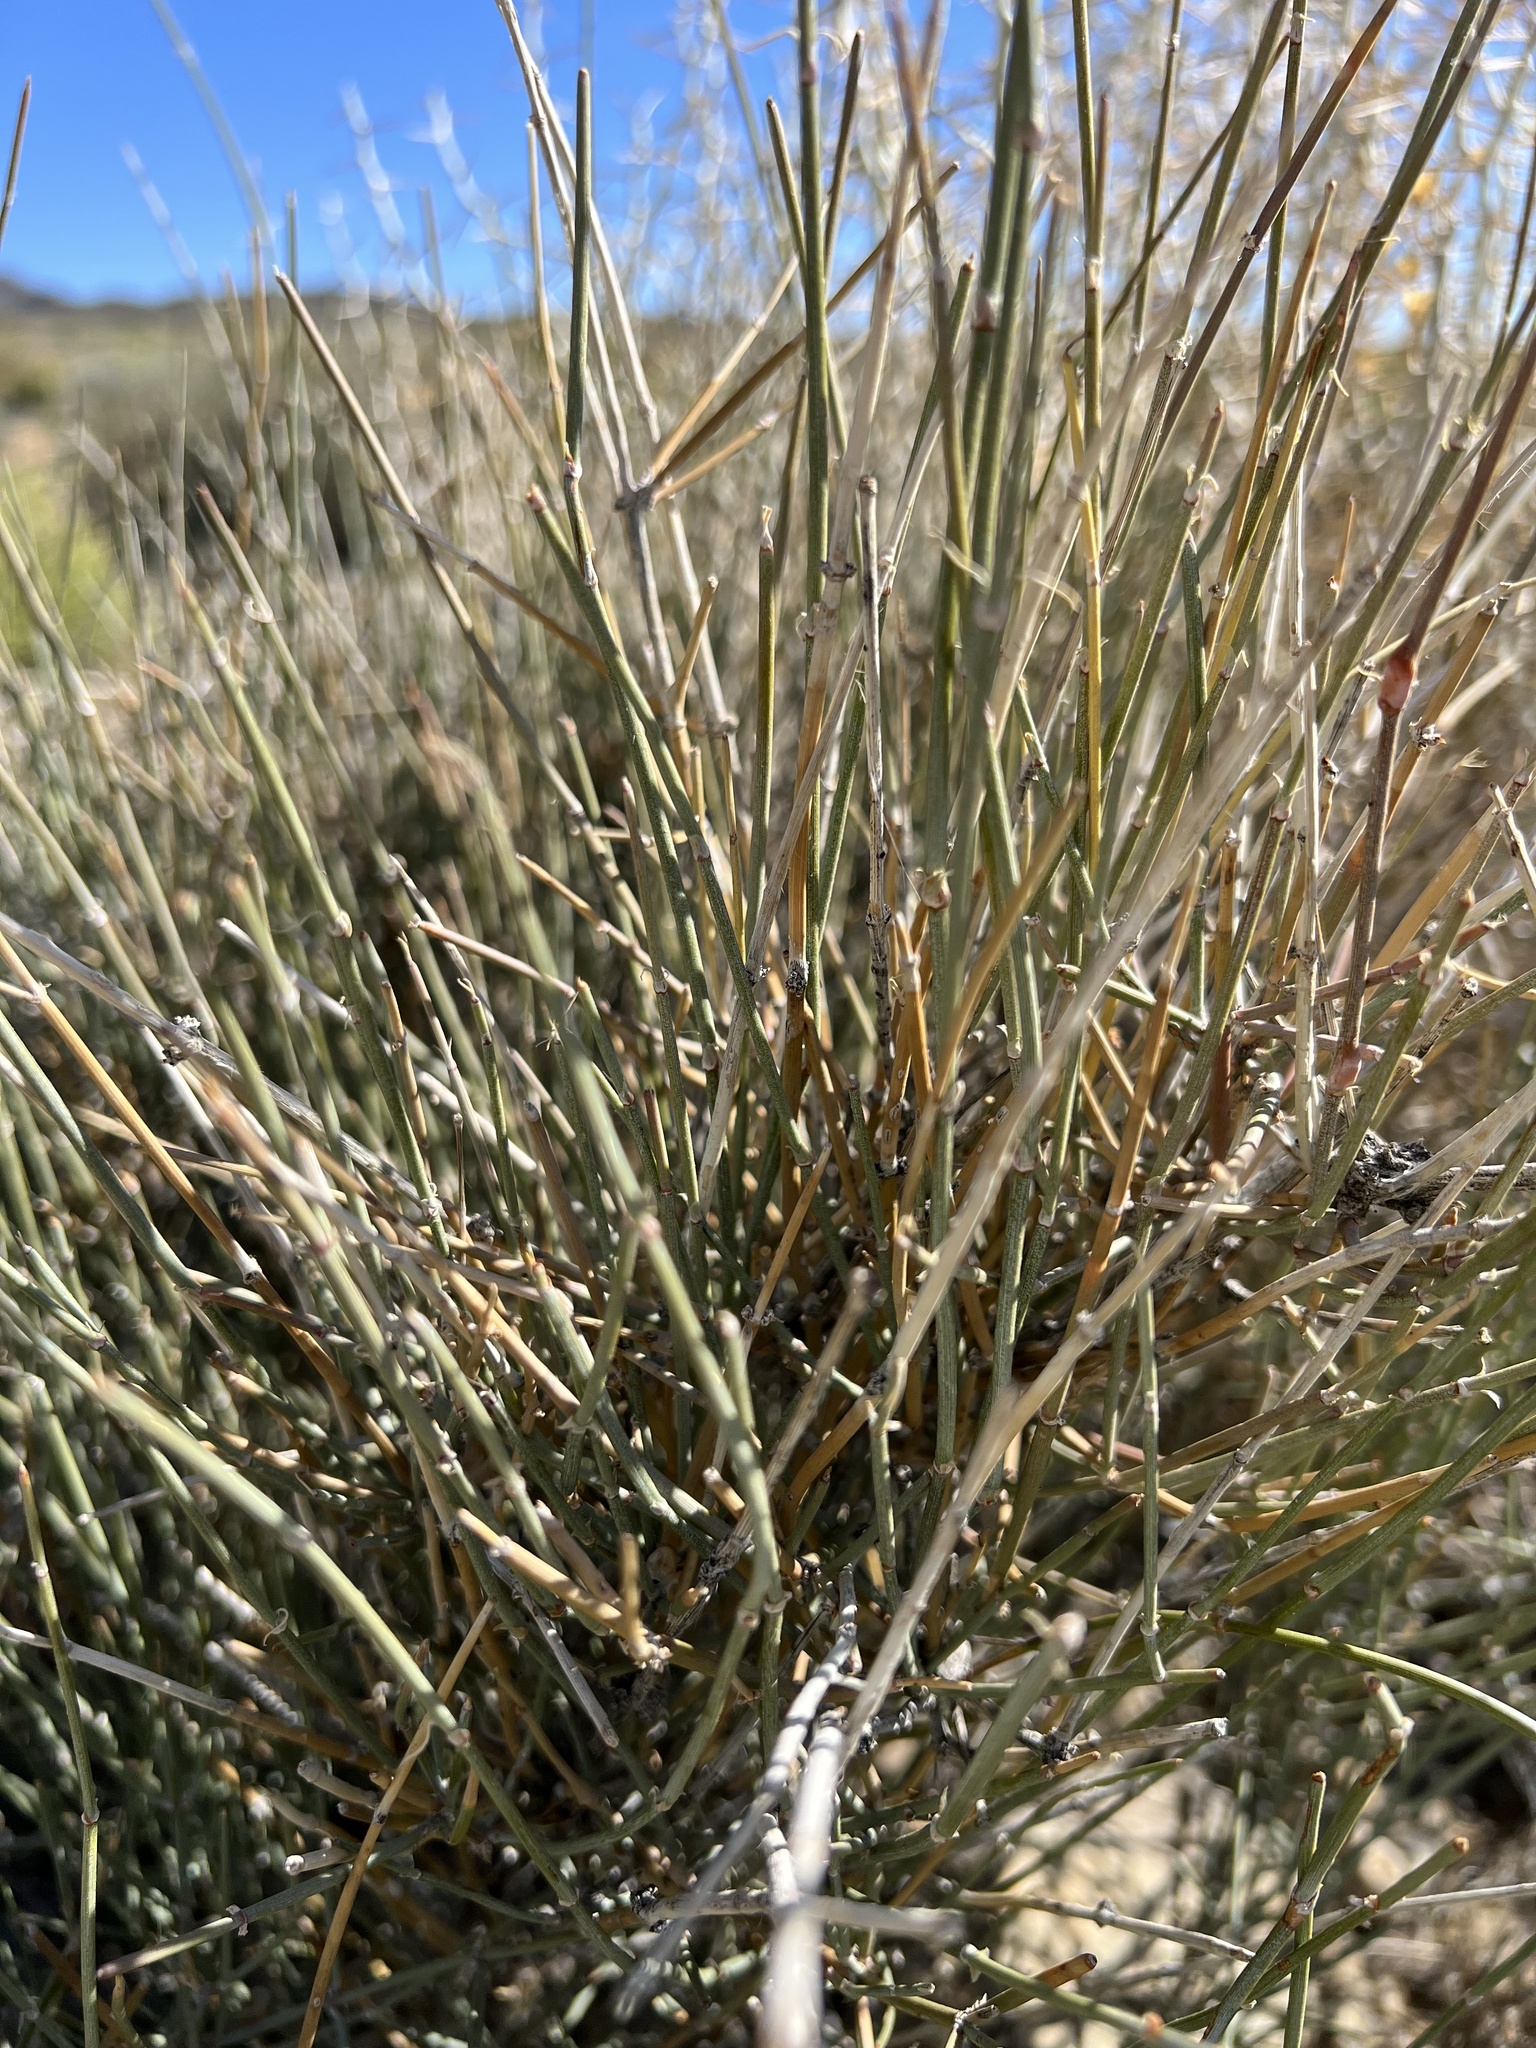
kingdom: Plantae
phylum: Tracheophyta
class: Gnetopsida
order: Ephedrales
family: Ephedraceae
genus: Ephedra
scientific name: Ephedra nevadensis
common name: Gray ephedra
